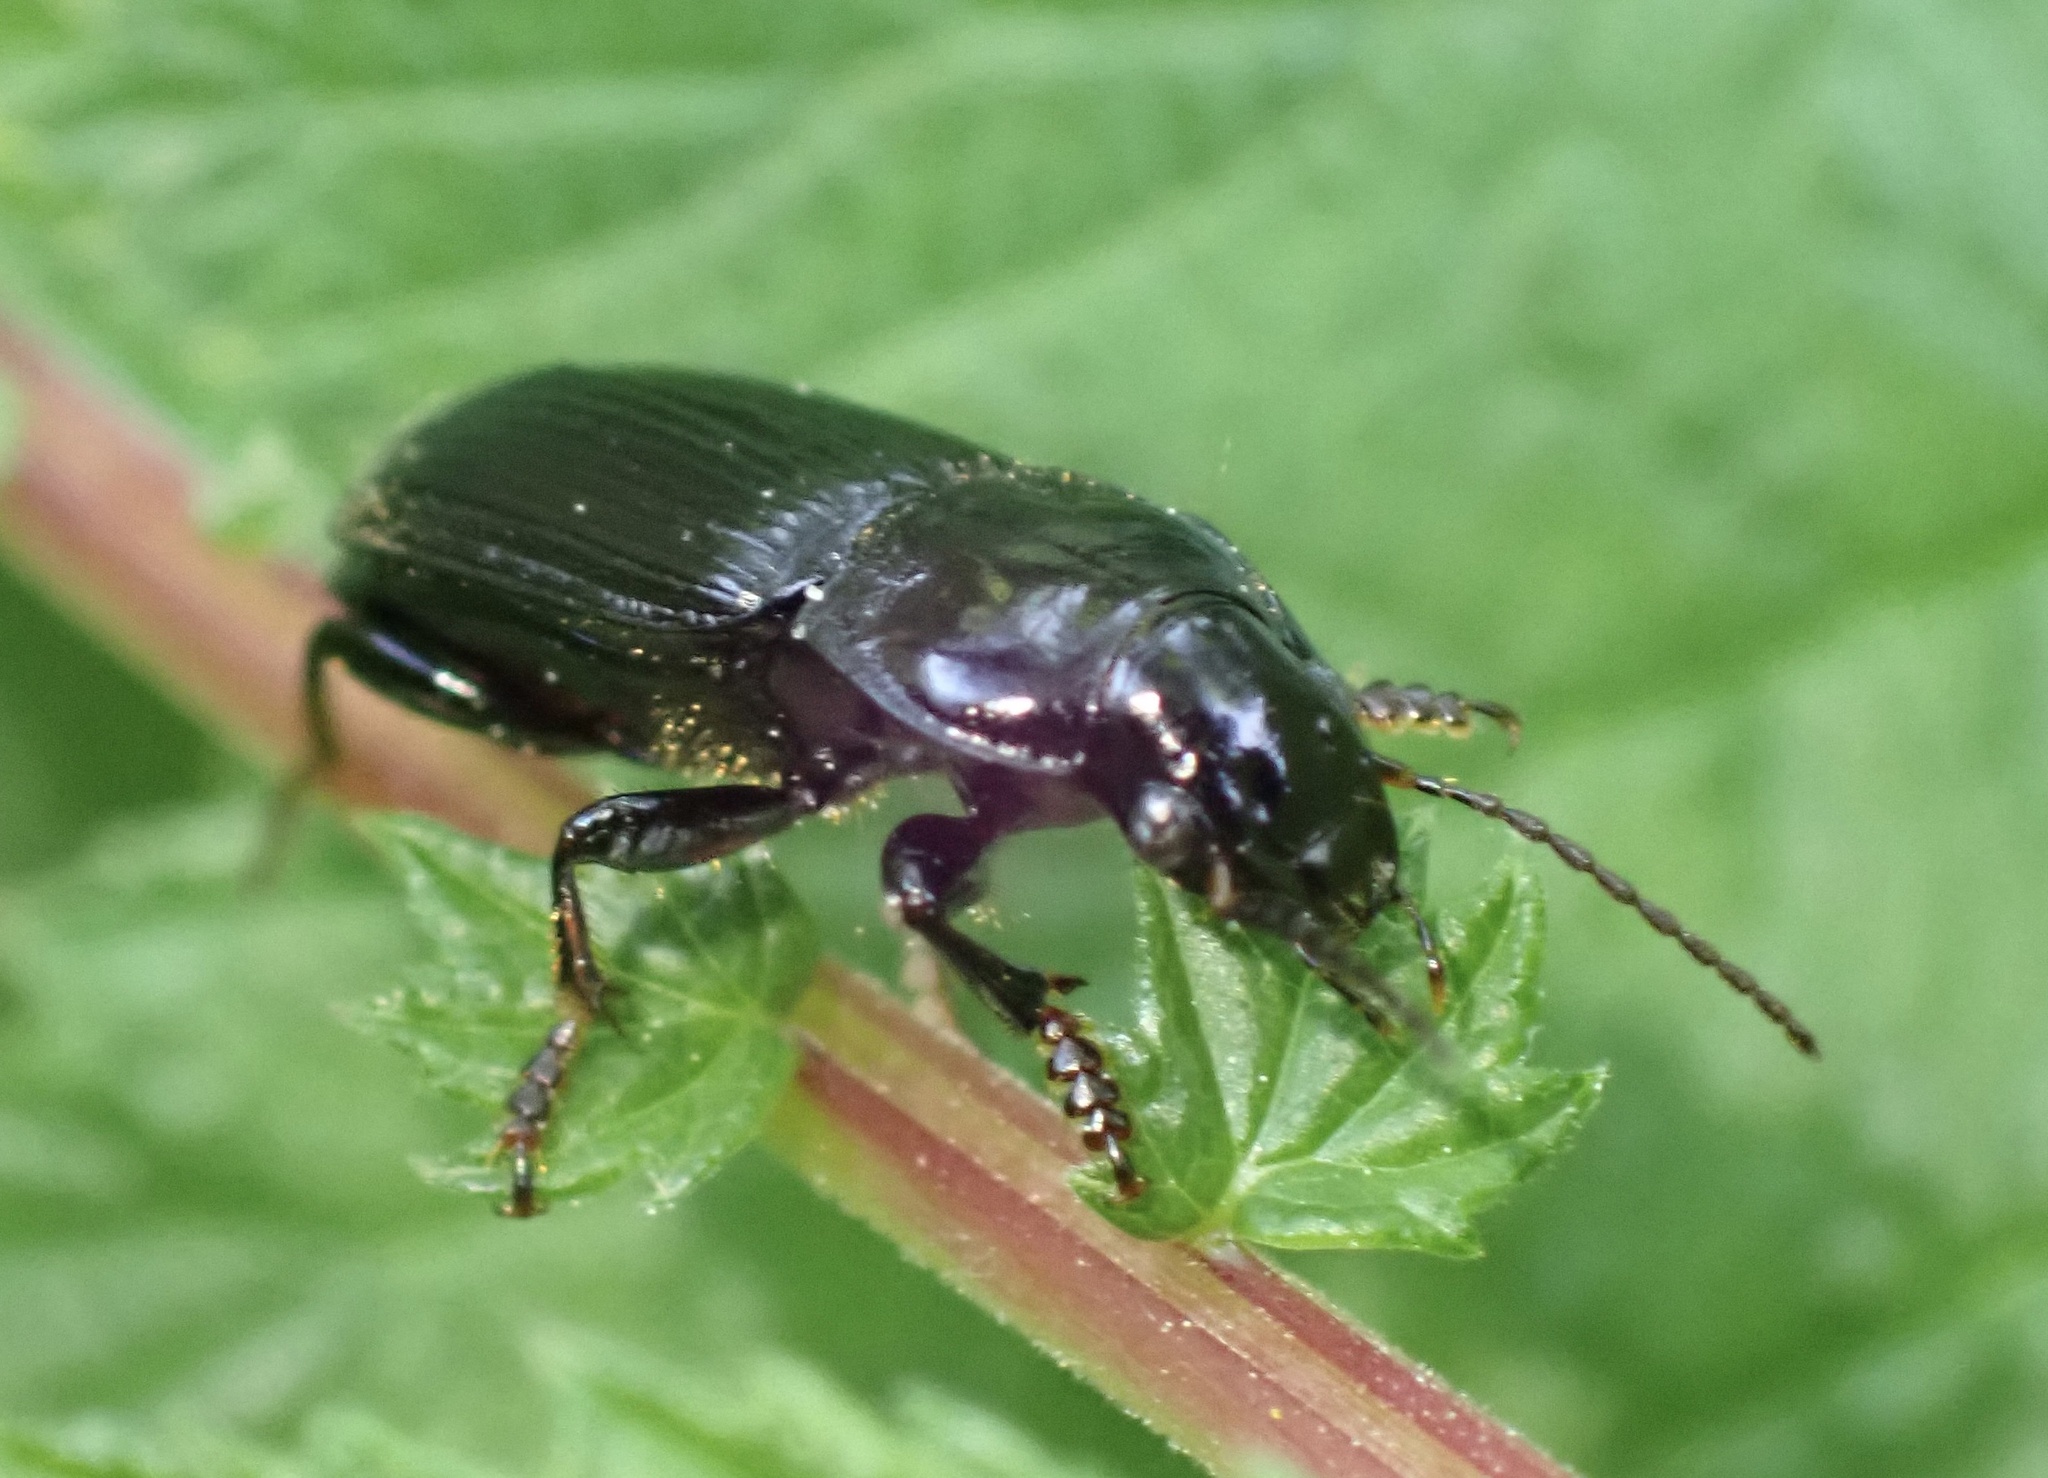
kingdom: Animalia
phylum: Arthropoda
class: Insecta
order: Coleoptera
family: Carabidae
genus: Anisodactylus
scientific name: Anisodactylus binotatus
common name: Two-marked harp ground beetle
